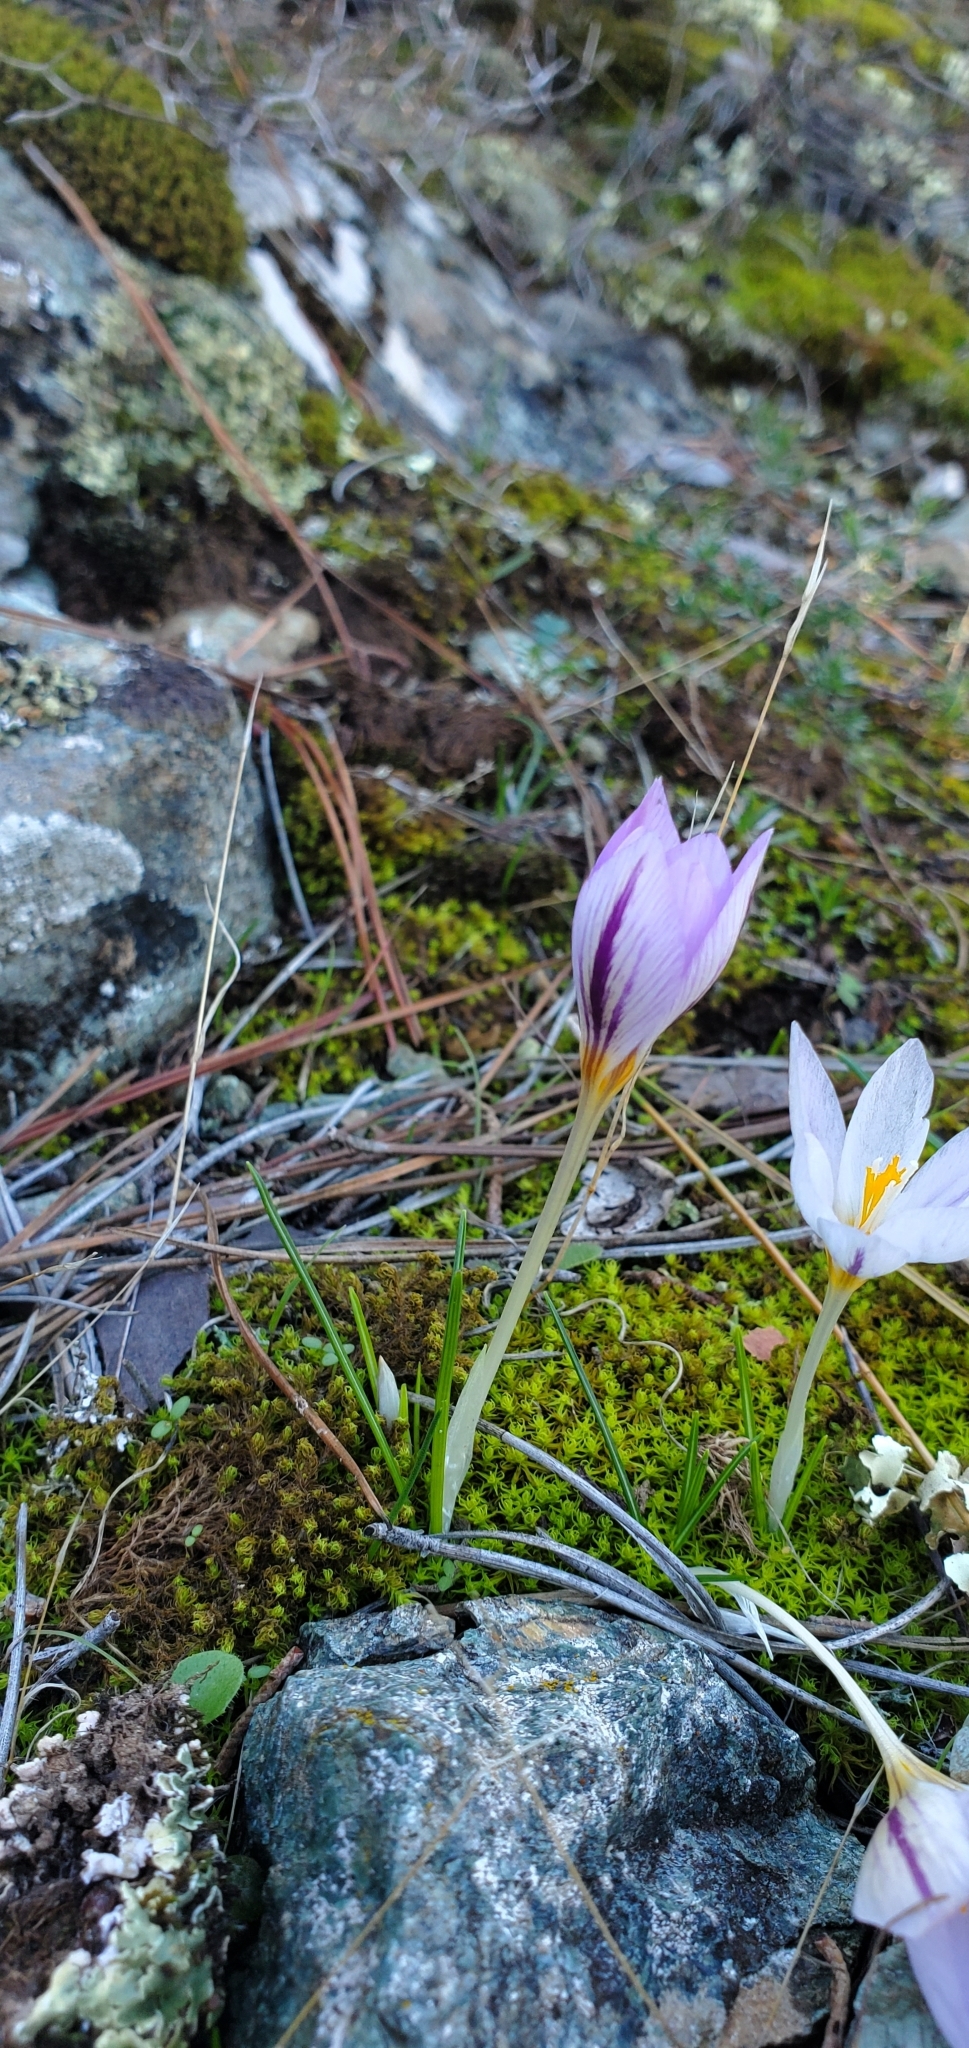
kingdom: Plantae
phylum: Tracheophyta
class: Liliopsida
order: Asparagales
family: Iridaceae
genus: Crocus
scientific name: Crocus laevigatus
